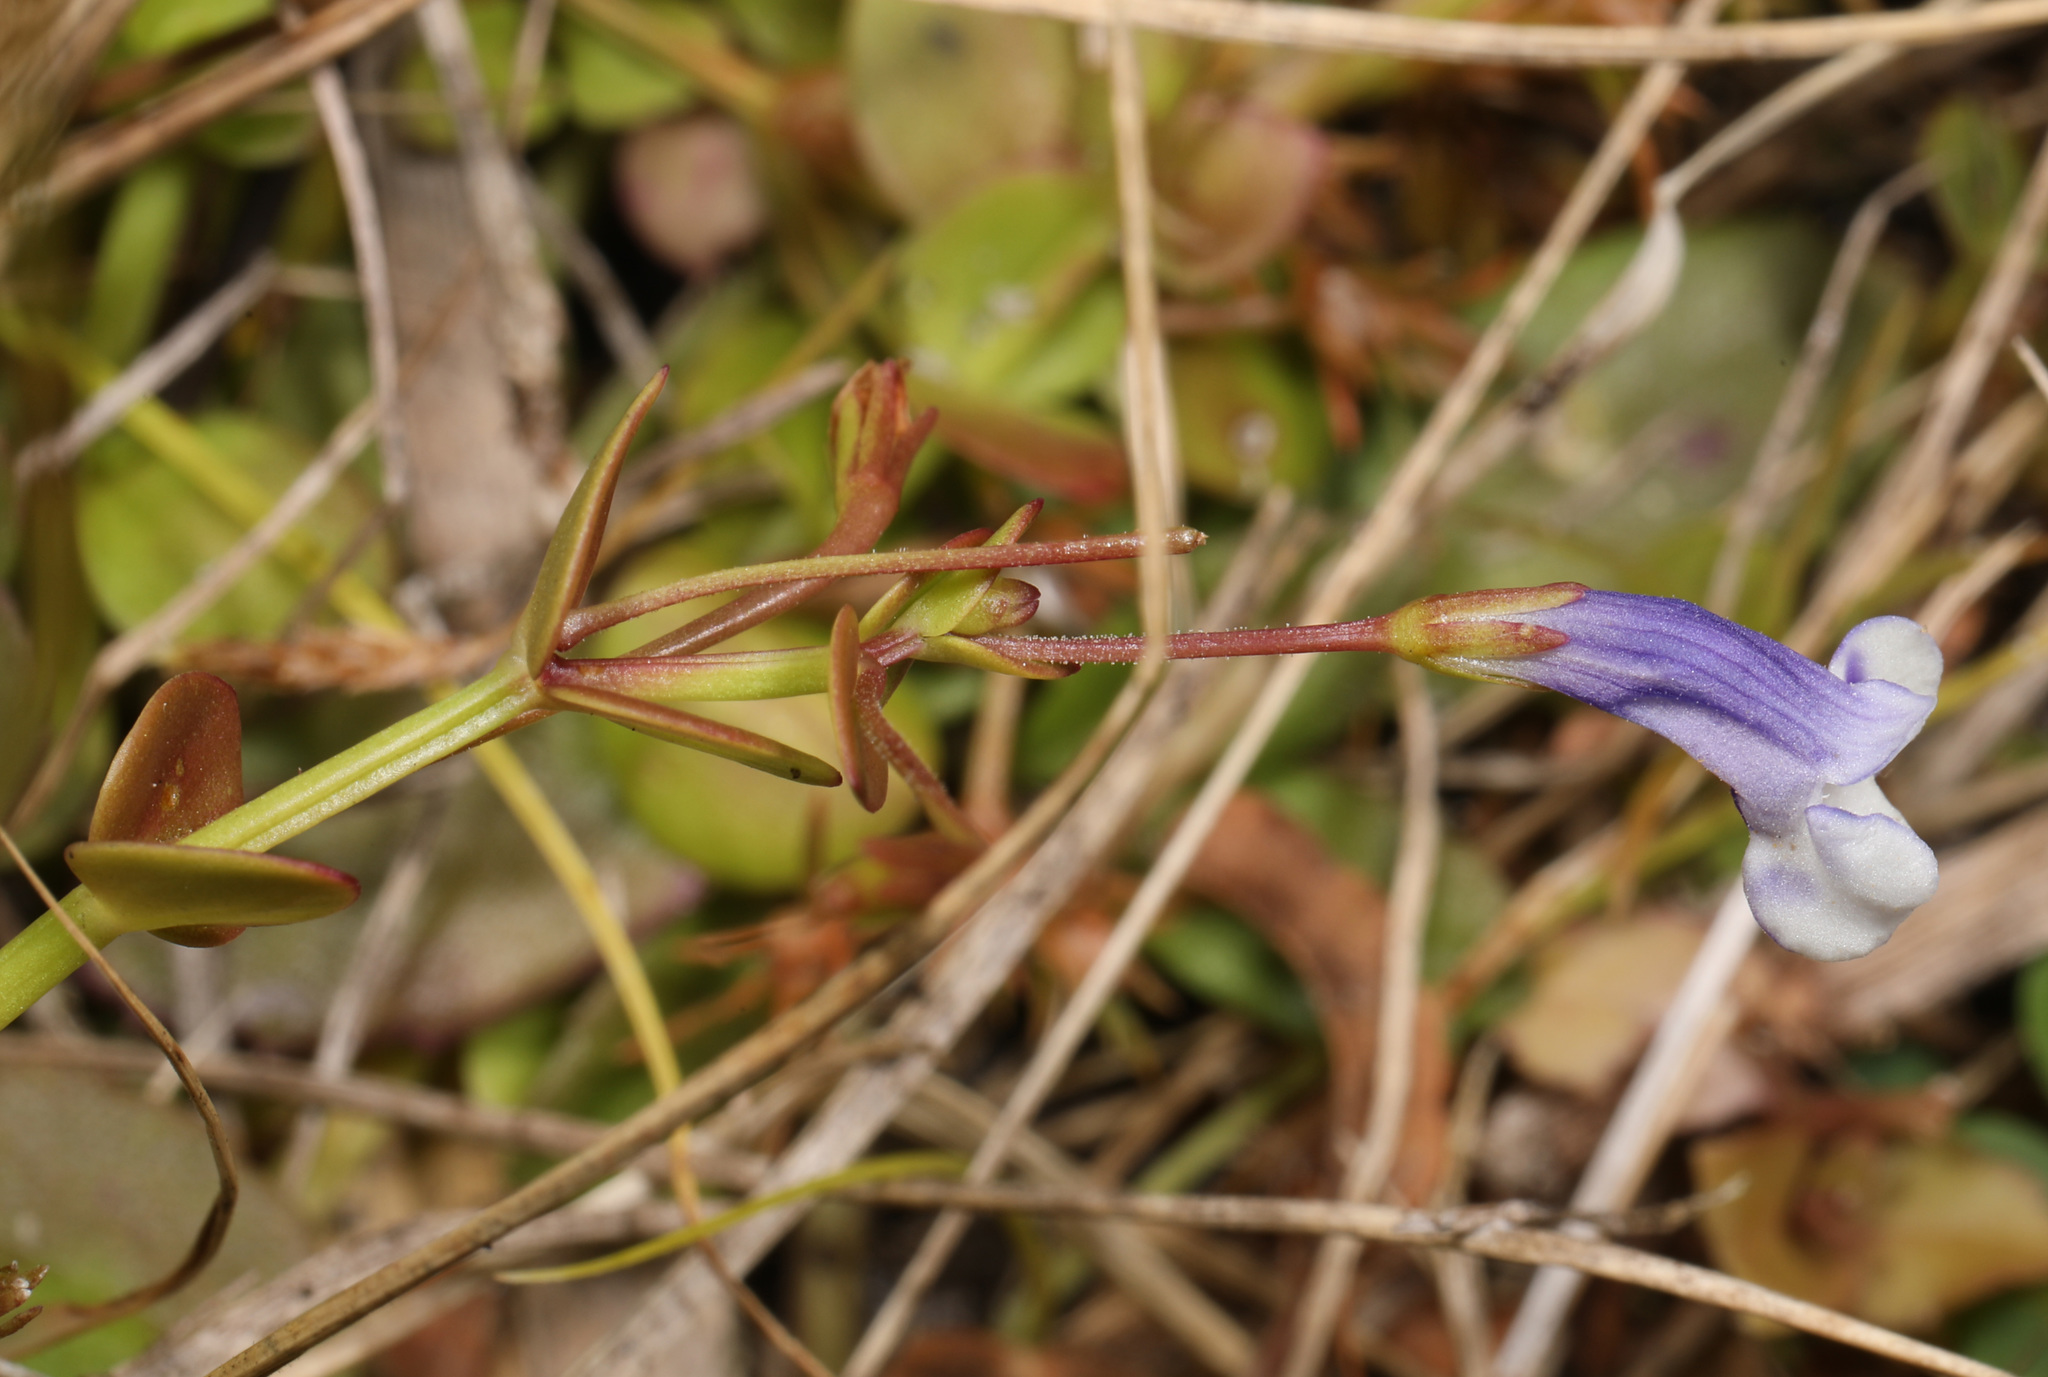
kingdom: Plantae
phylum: Tracheophyta
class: Magnoliopsida
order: Lamiales
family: Linderniaceae
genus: Lindernia
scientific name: Lindernia grandiflora
